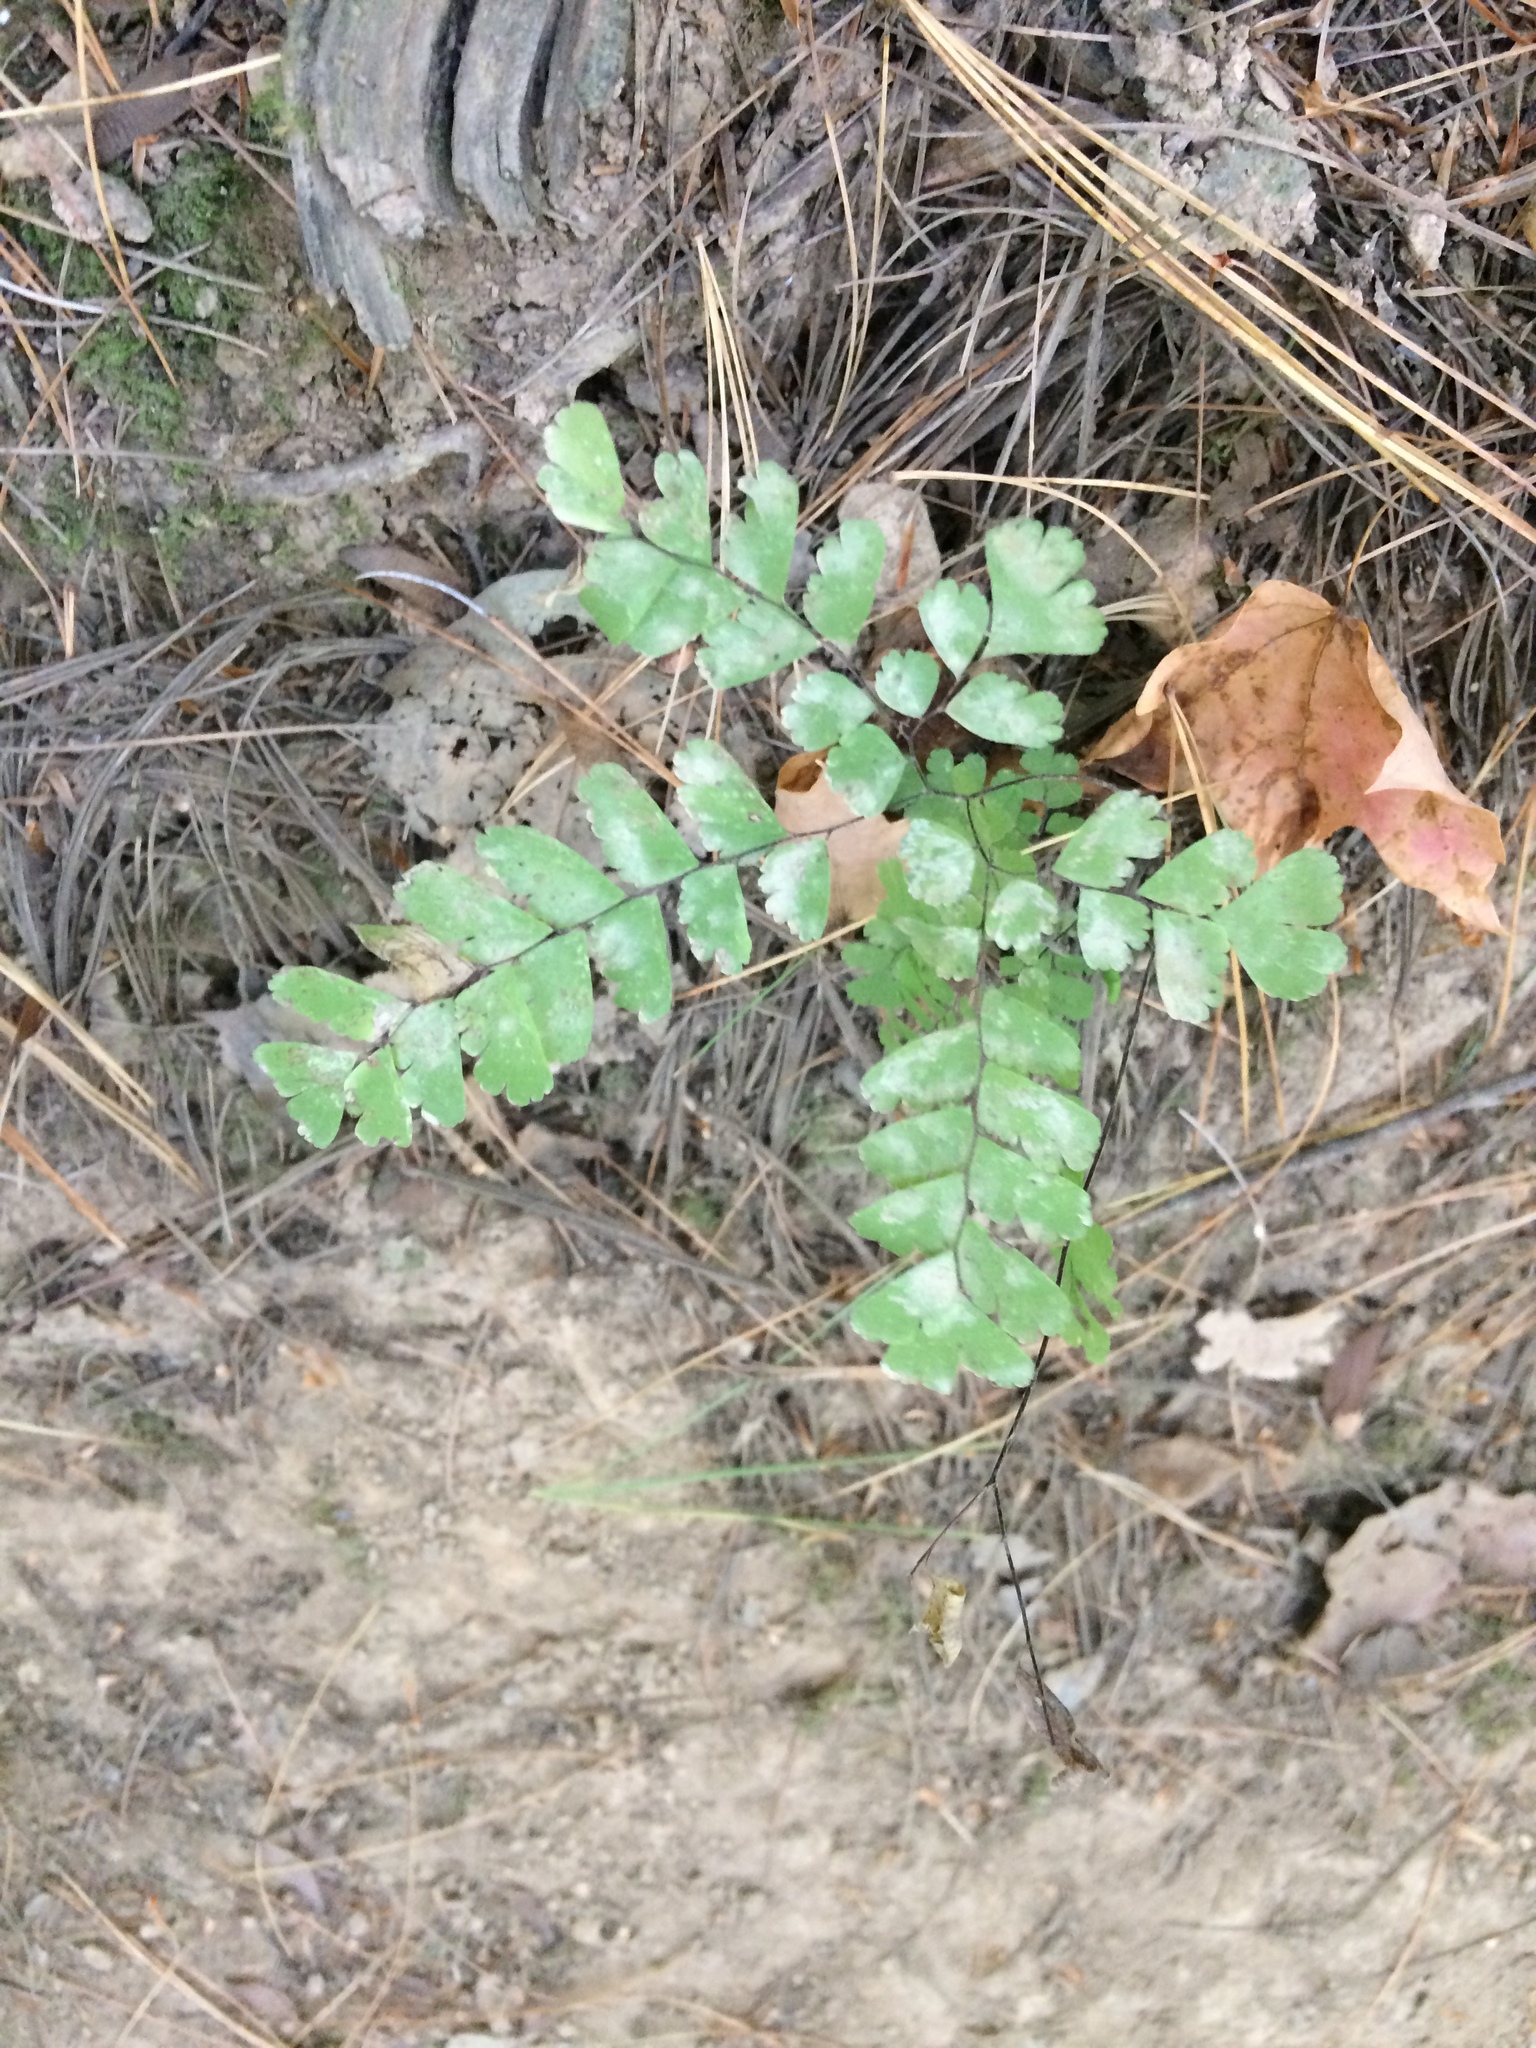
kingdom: Plantae
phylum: Tracheophyta
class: Polypodiopsida
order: Polypodiales
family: Pteridaceae
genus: Adiantum
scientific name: Adiantum pedatum
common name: Five-finger fern
